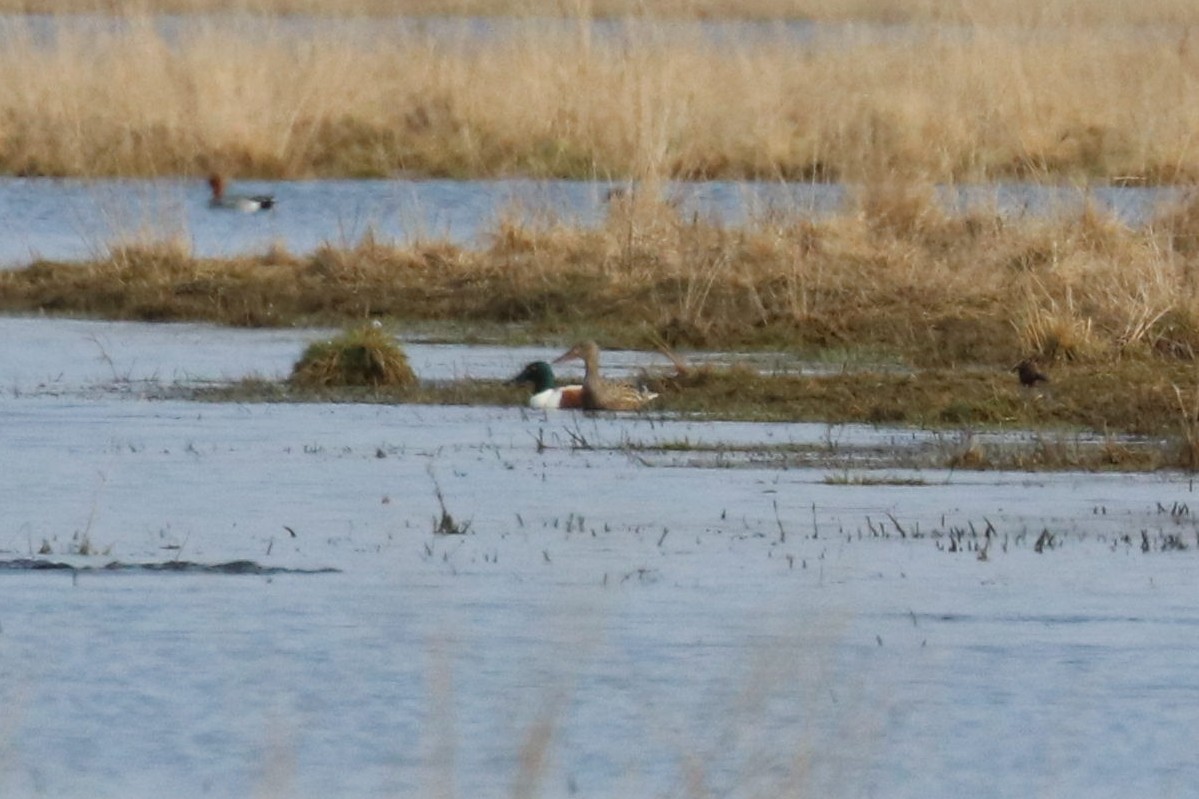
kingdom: Animalia
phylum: Chordata
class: Aves
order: Anseriformes
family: Anatidae
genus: Spatula
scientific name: Spatula clypeata
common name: Northern shoveler
